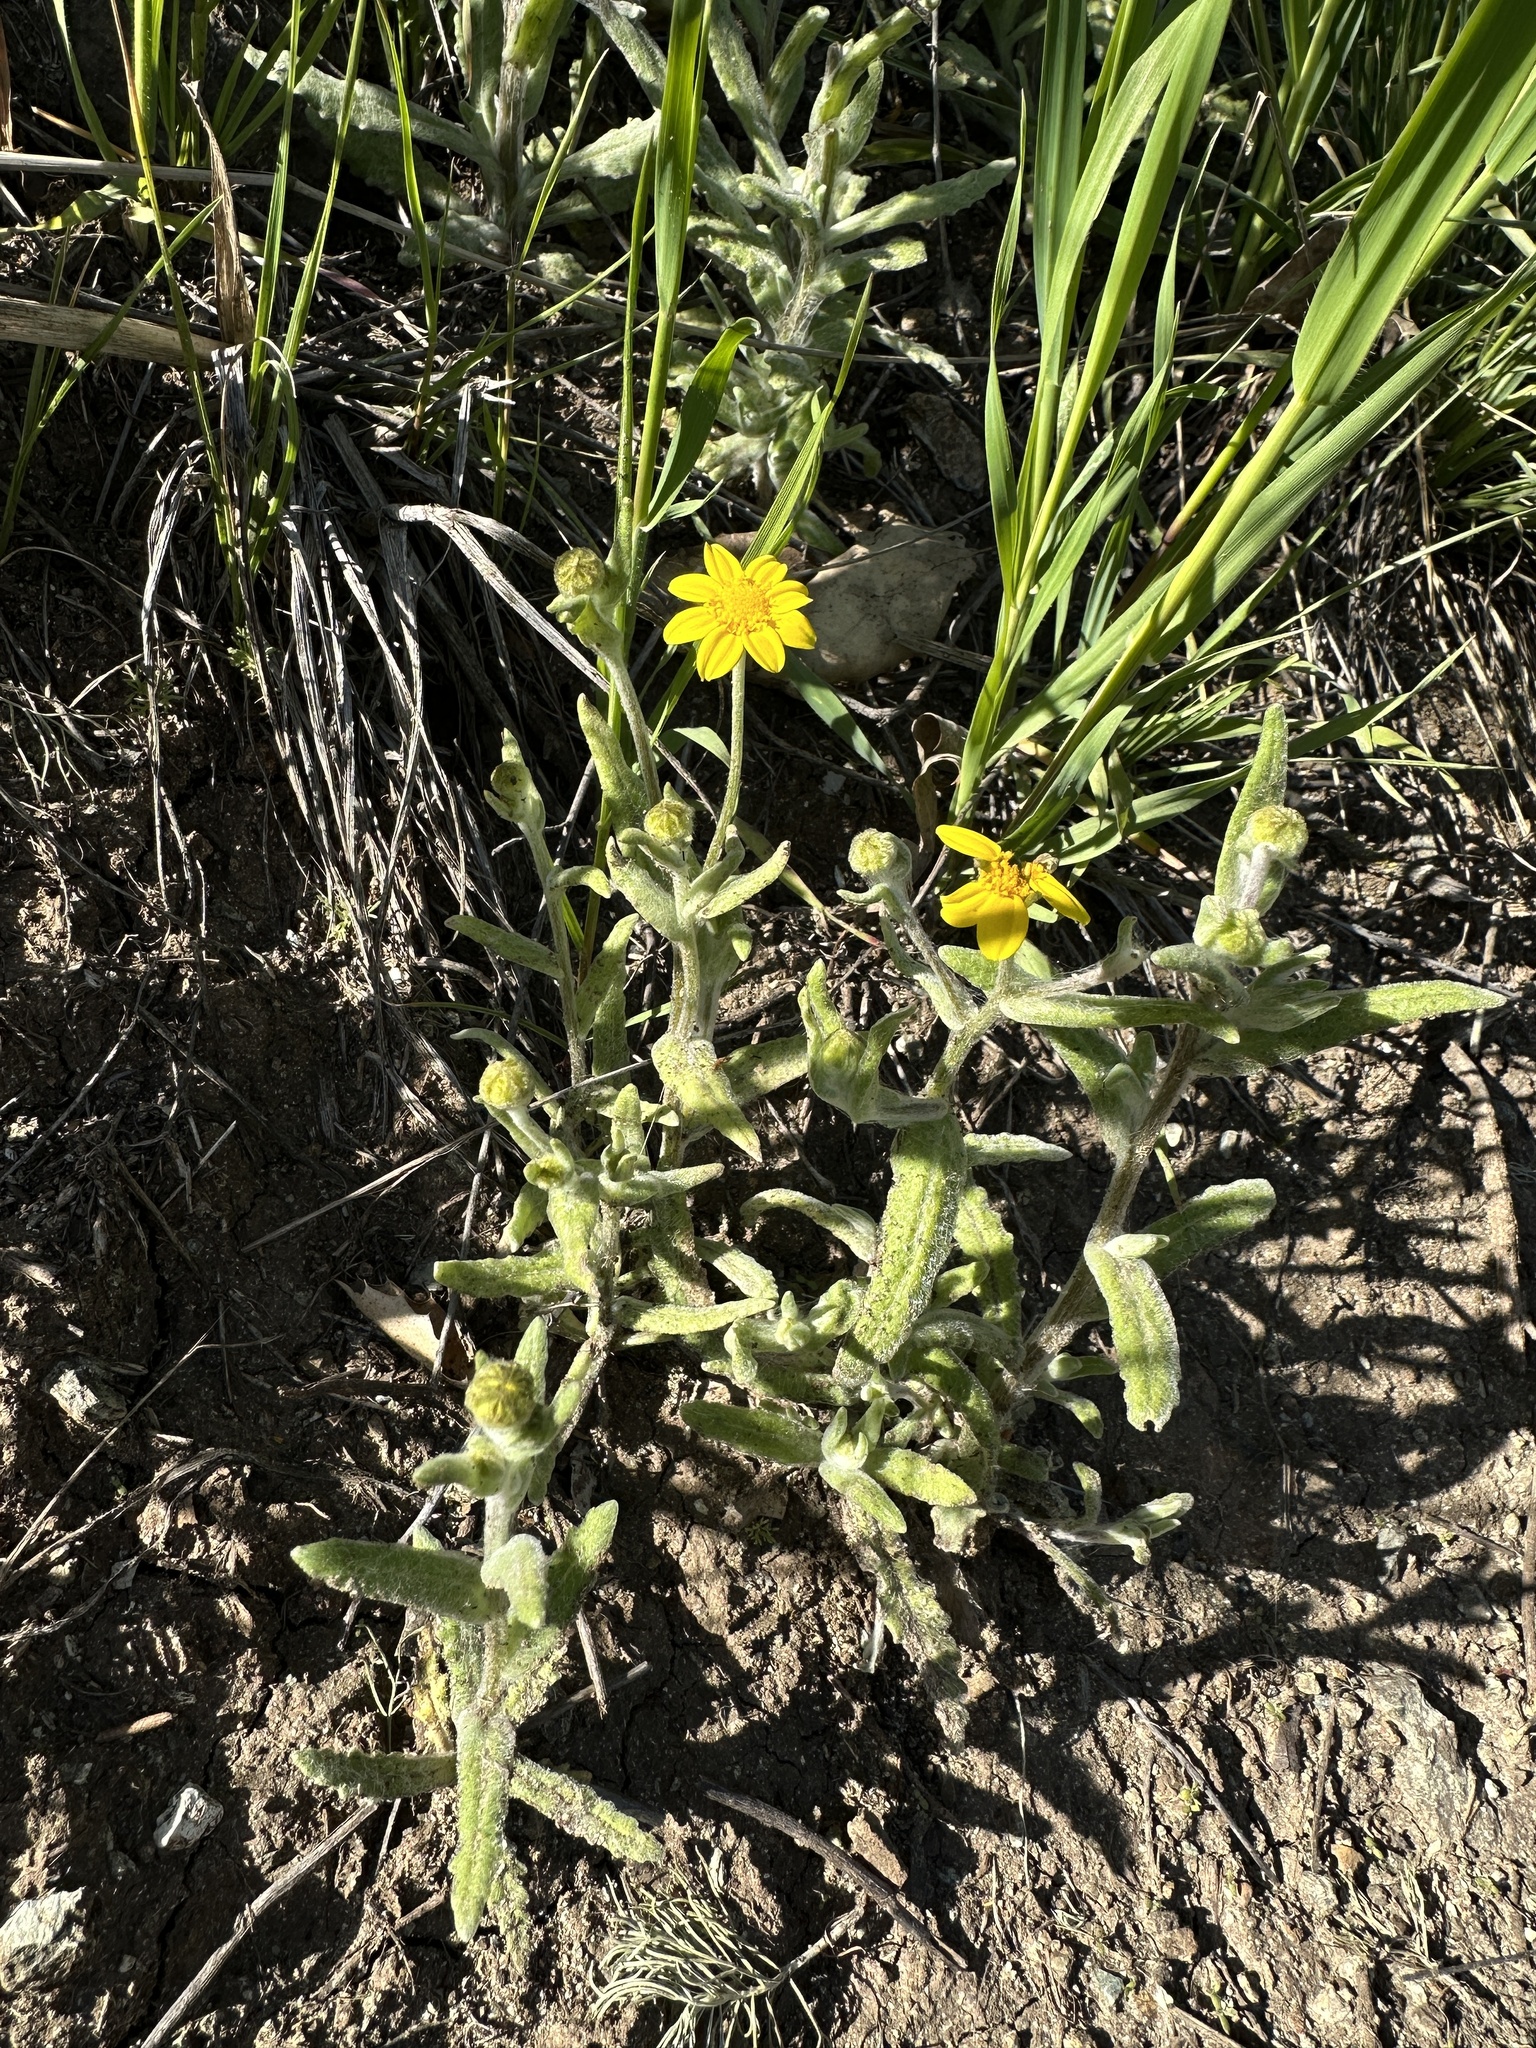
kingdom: Plantae
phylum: Tracheophyta
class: Magnoliopsida
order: Asterales
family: Asteraceae
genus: Monolopia
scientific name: Monolopia gracilens
